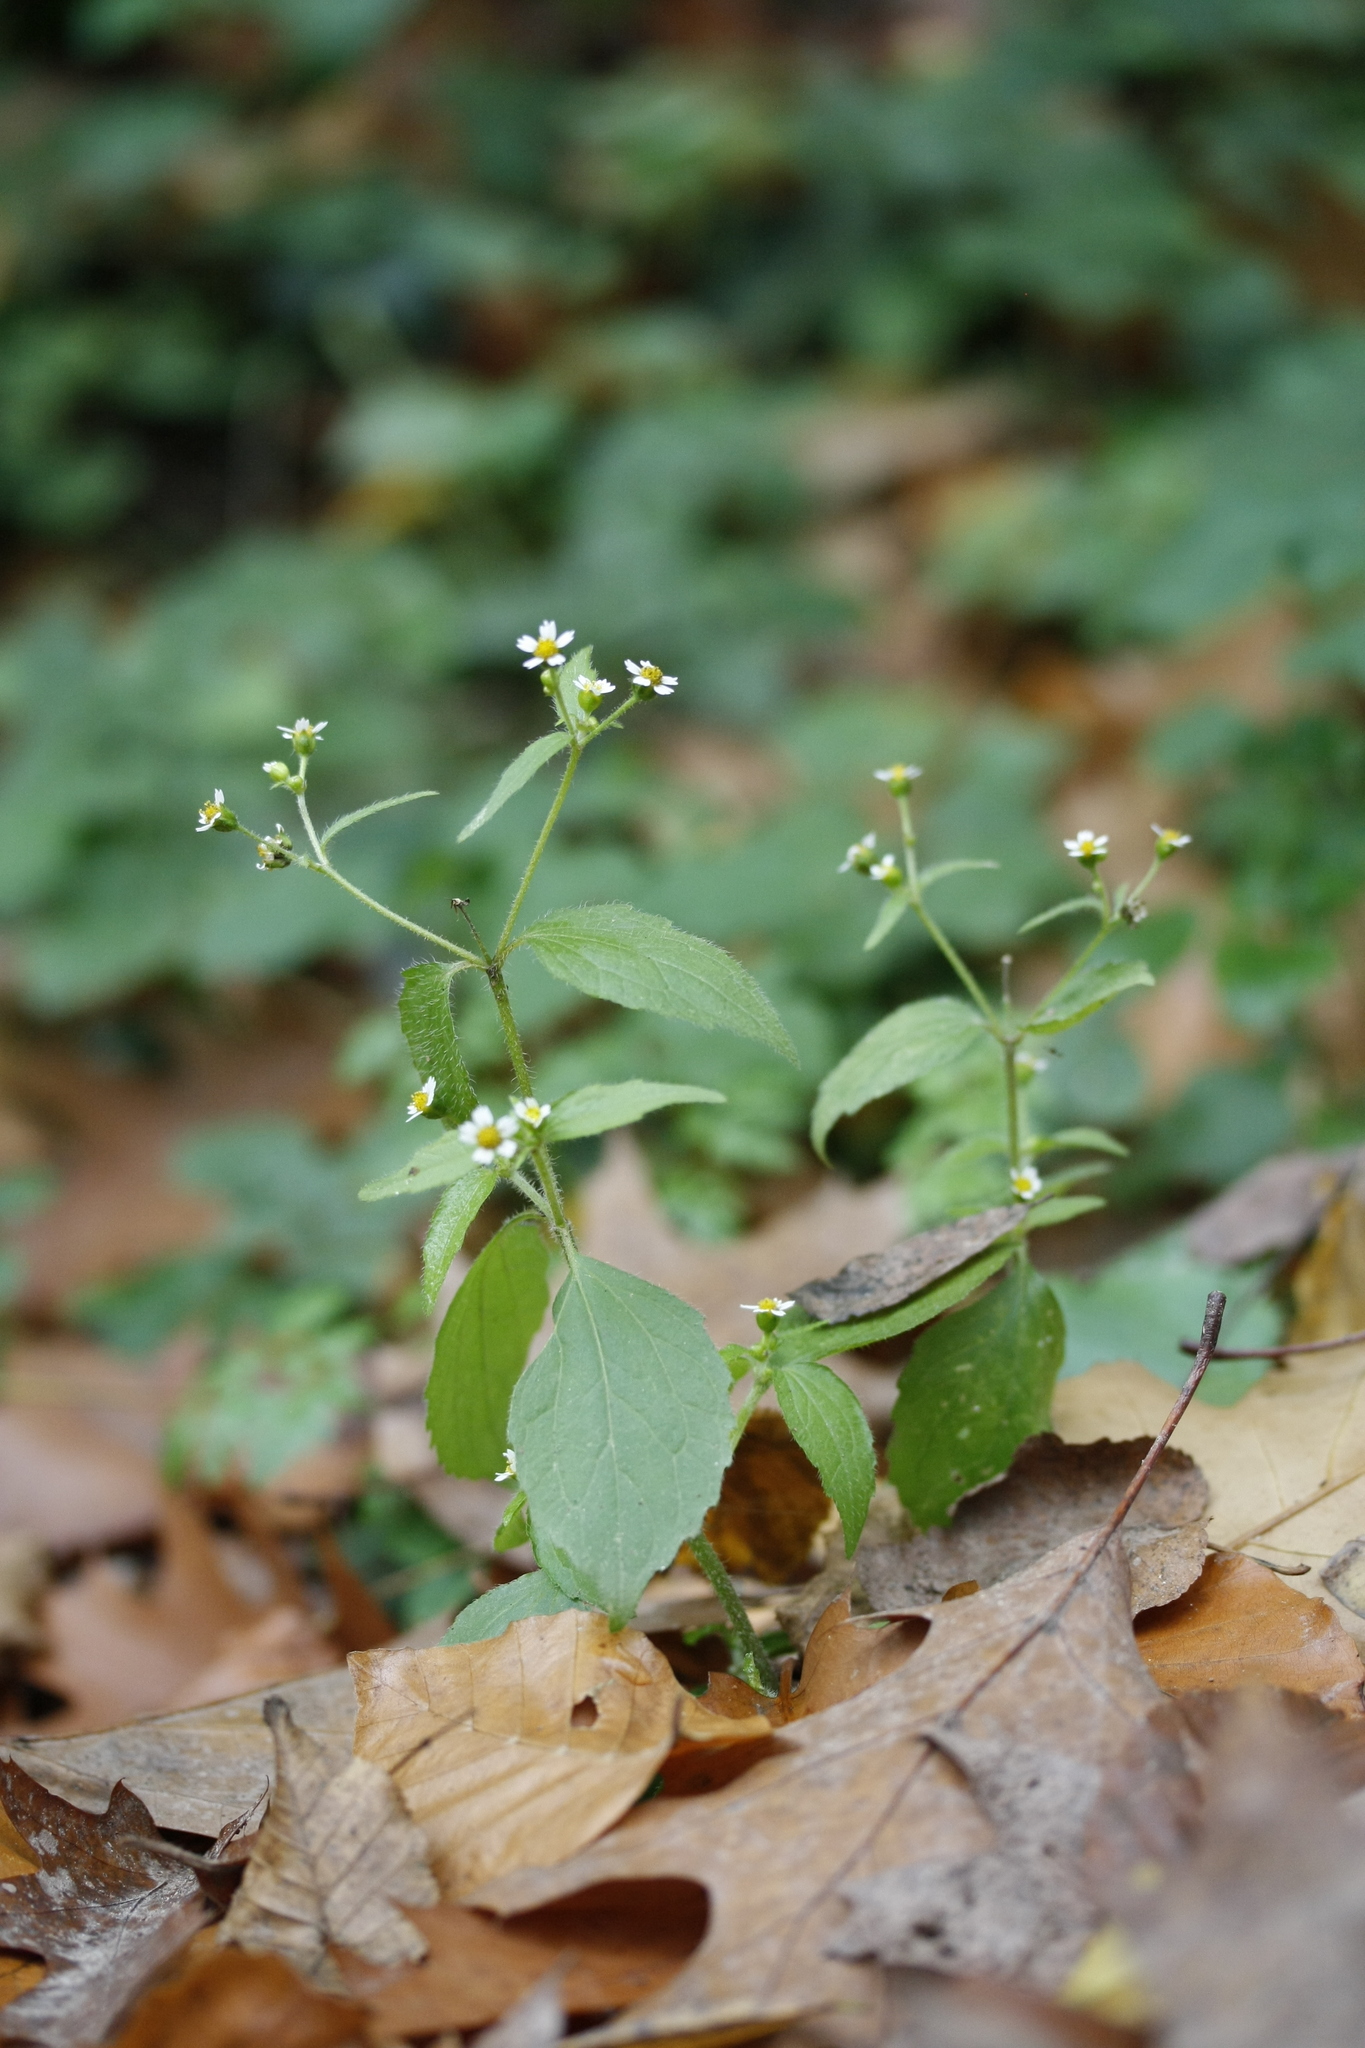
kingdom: Plantae
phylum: Tracheophyta
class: Magnoliopsida
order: Asterales
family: Asteraceae
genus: Galinsoga
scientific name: Galinsoga quadriradiata
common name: Shaggy soldier
